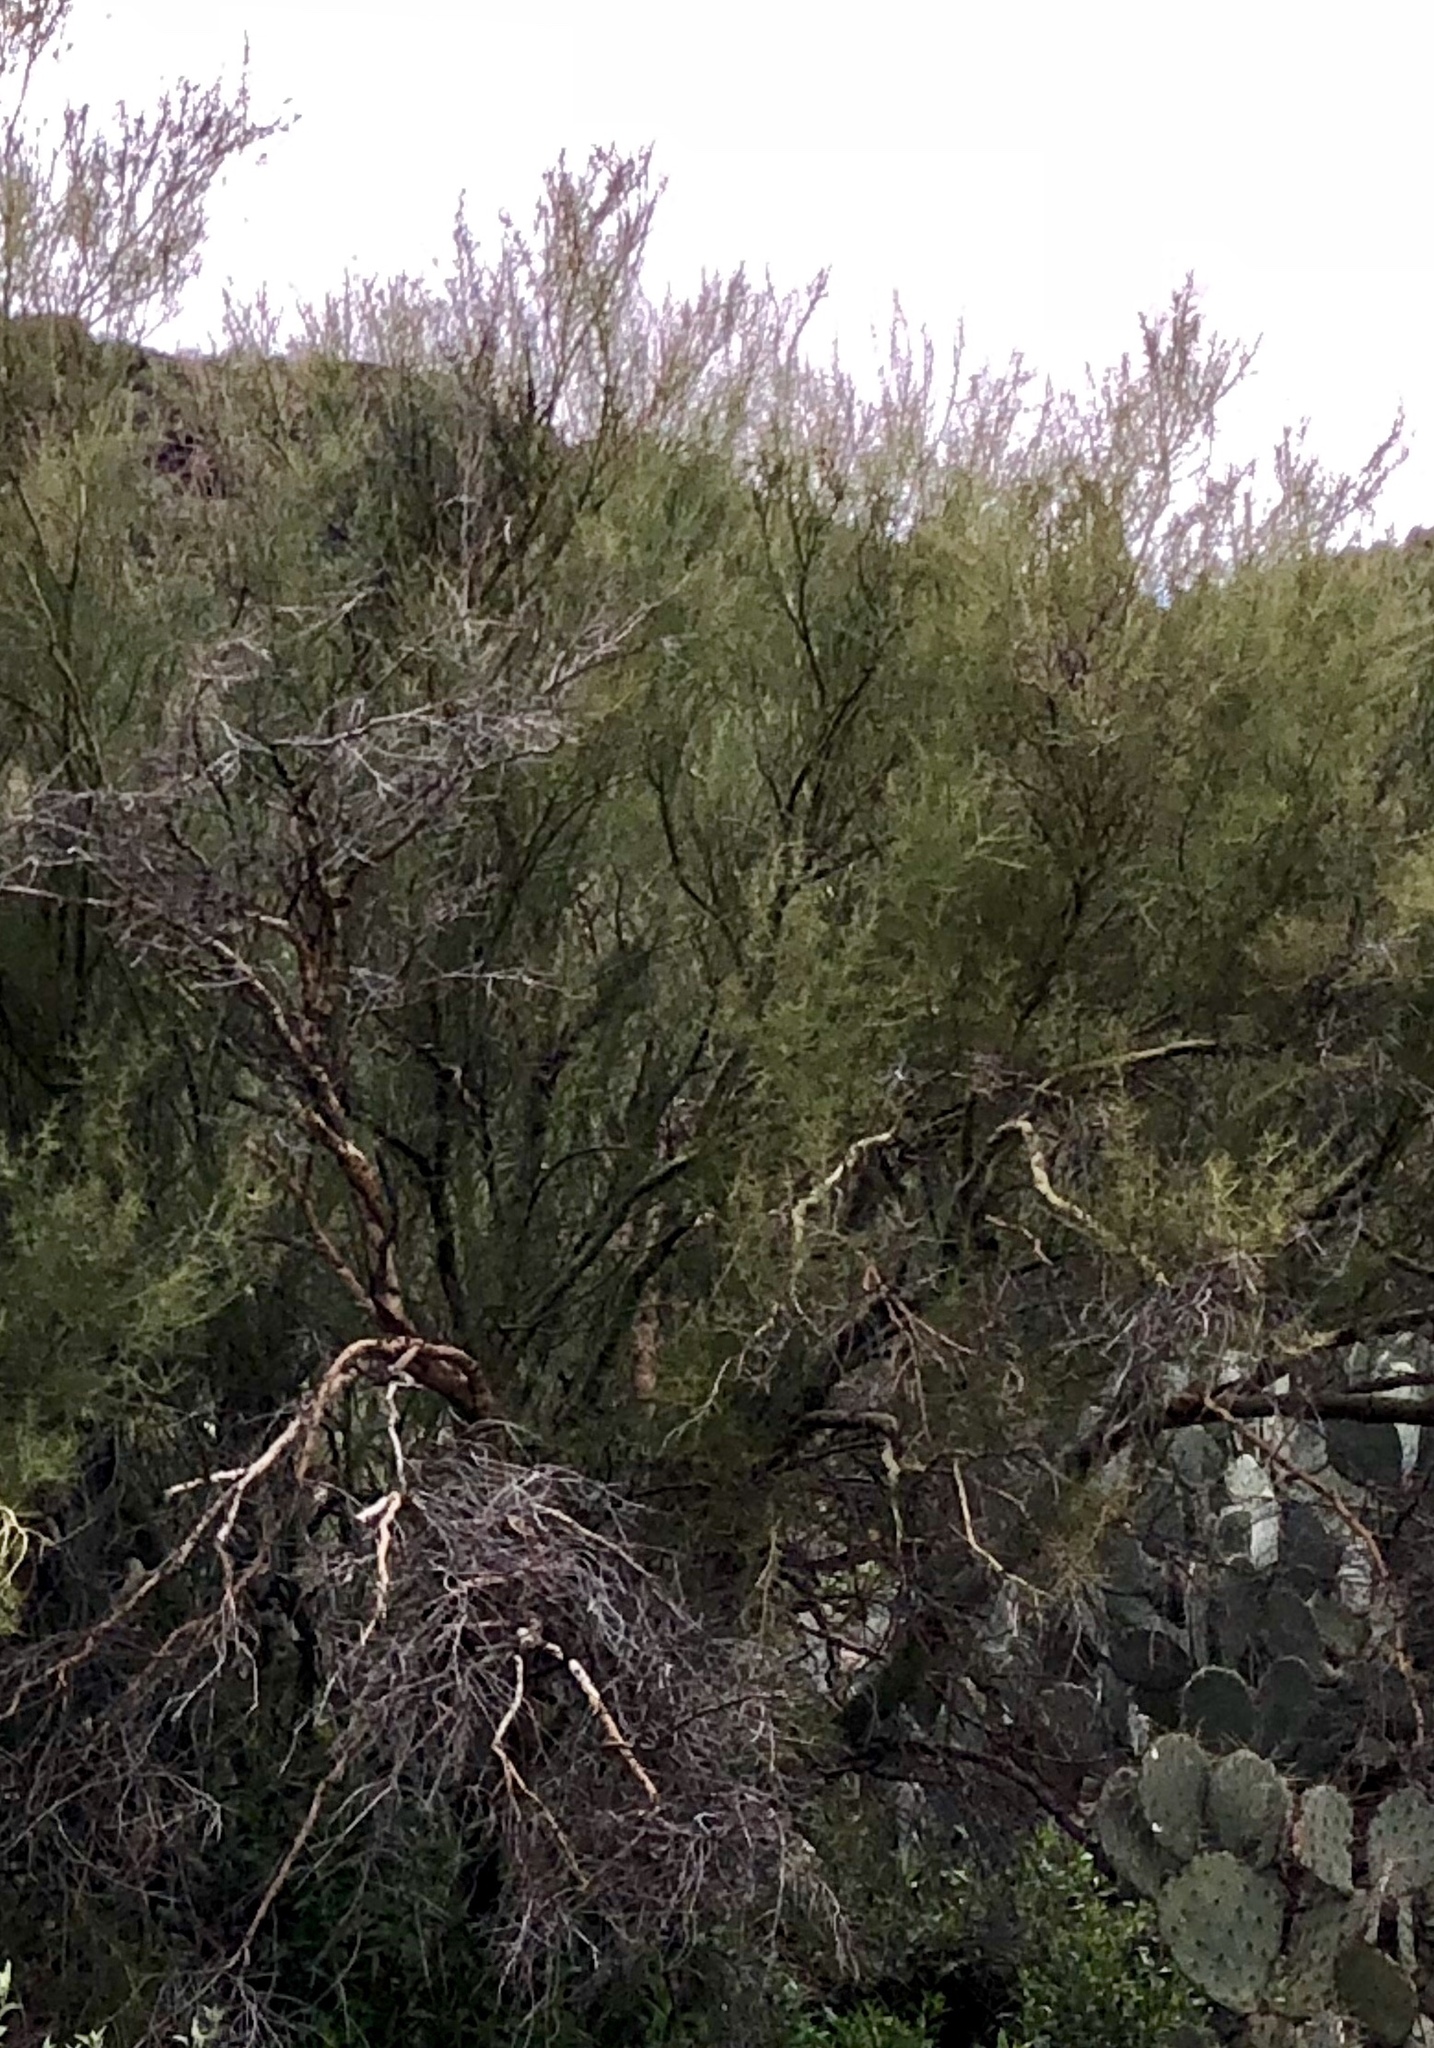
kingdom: Plantae
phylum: Tracheophyta
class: Magnoliopsida
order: Fabales
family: Fabaceae
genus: Parkinsonia
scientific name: Parkinsonia microphylla
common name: Yellow paloverde
